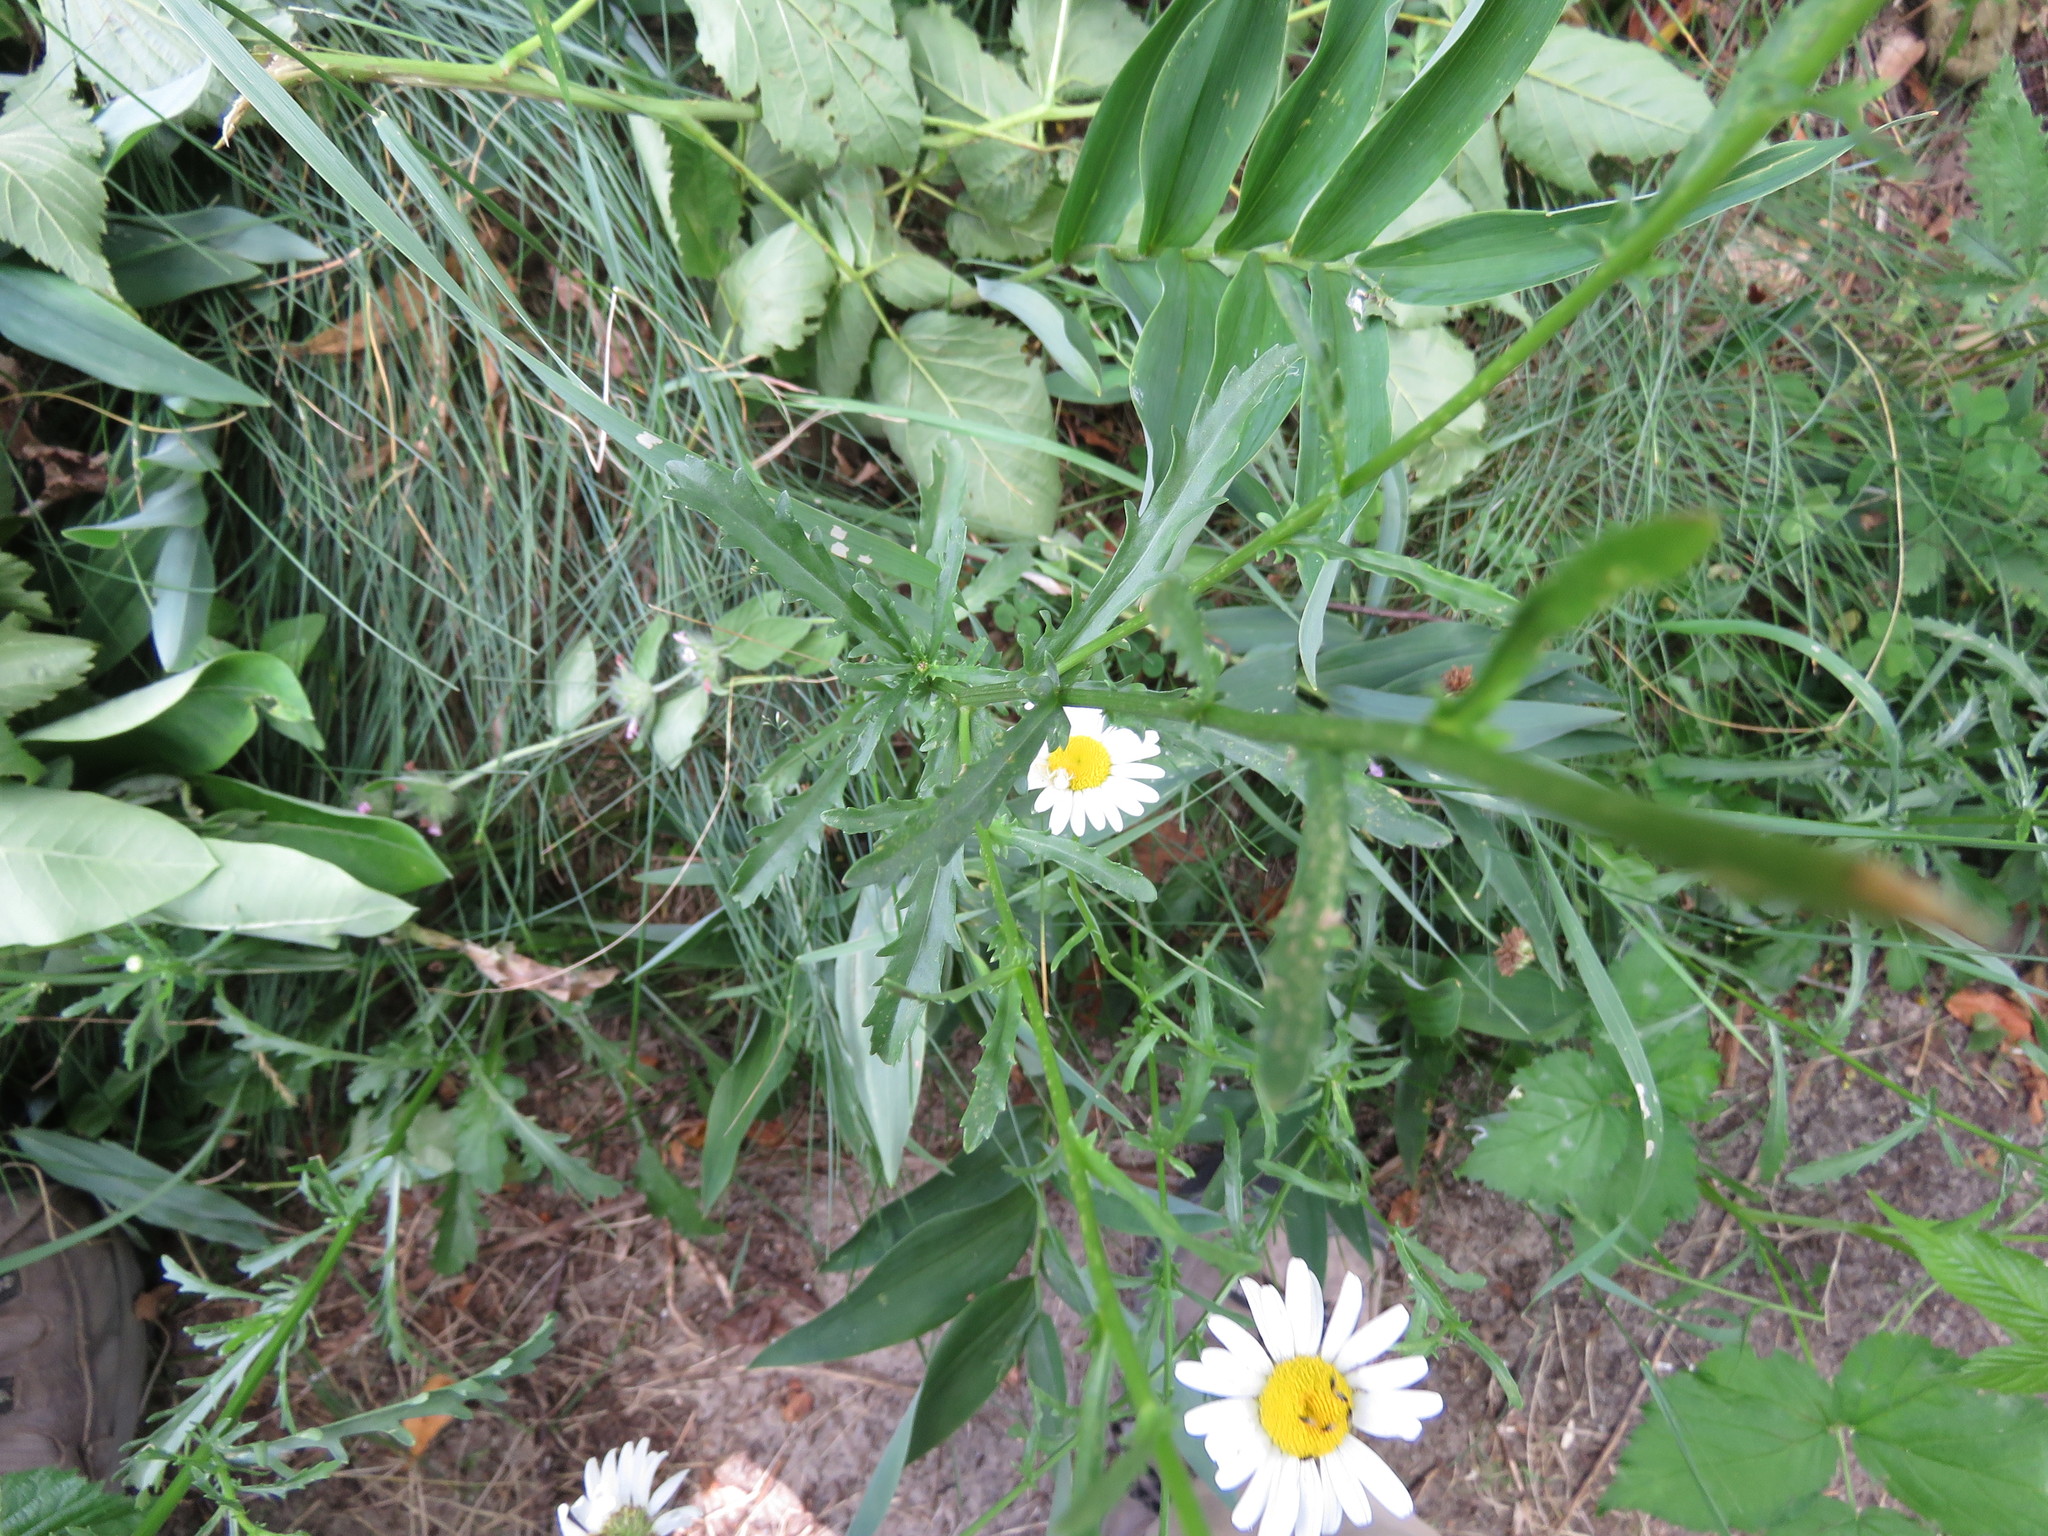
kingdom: Plantae
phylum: Tracheophyta
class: Magnoliopsida
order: Asterales
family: Asteraceae
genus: Leucanthemum
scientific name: Leucanthemum vulgare
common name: Oxeye daisy
